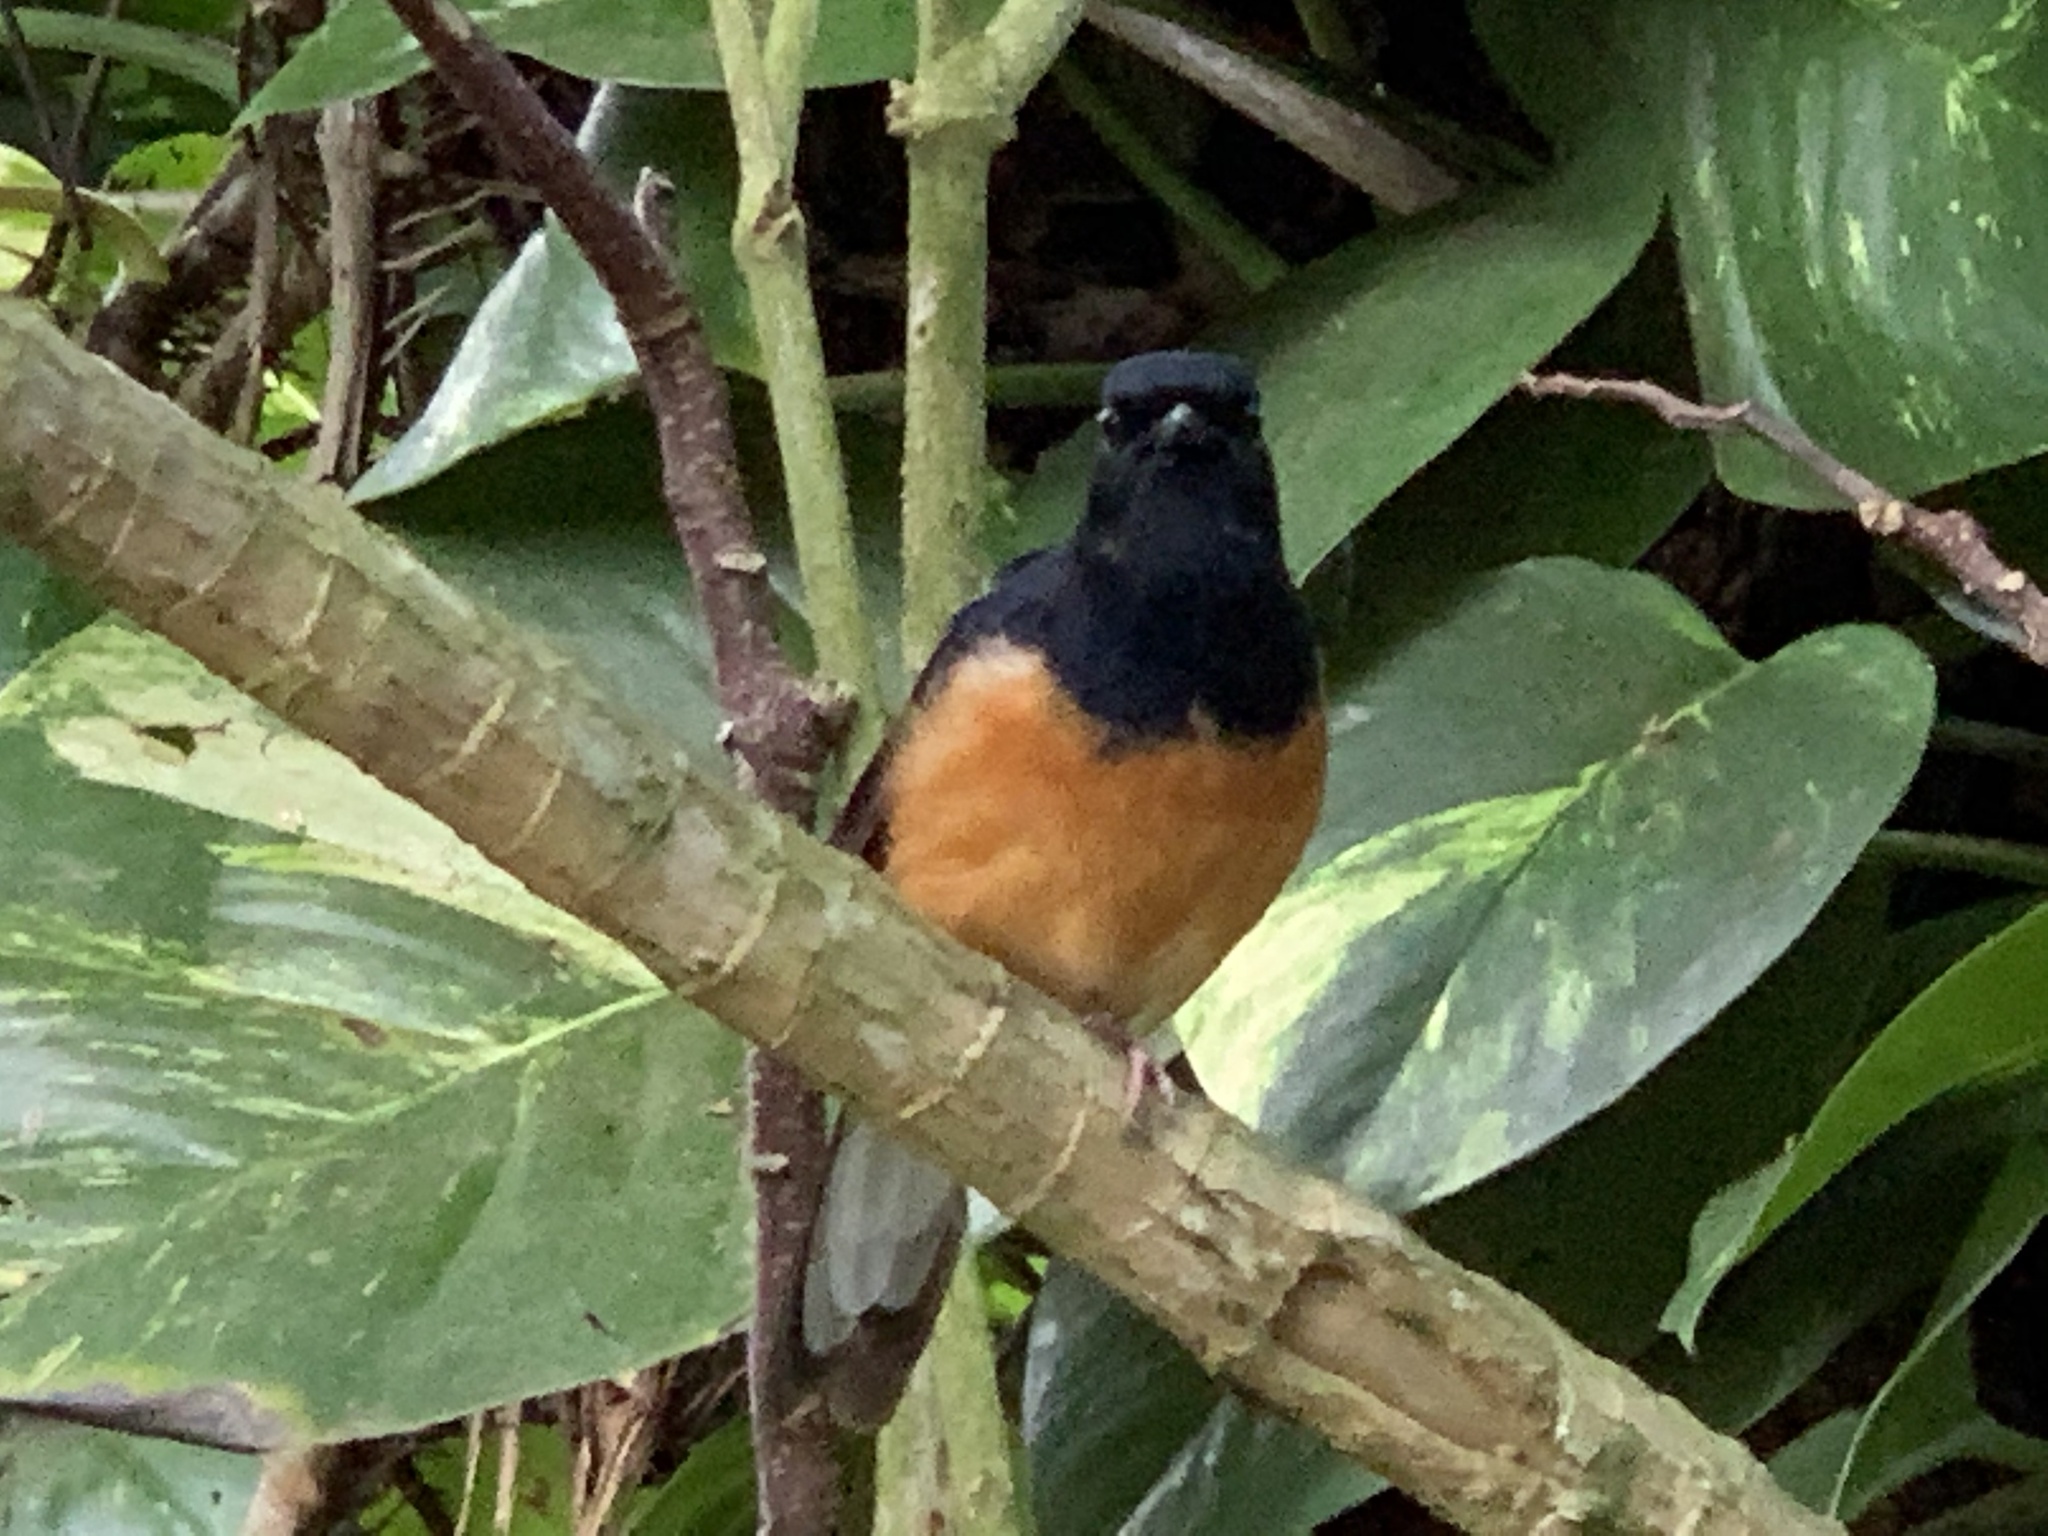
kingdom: Animalia
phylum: Chordata
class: Aves
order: Passeriformes
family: Muscicapidae
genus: Copsychus
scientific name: Copsychus malabaricus
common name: White-rumped shama
